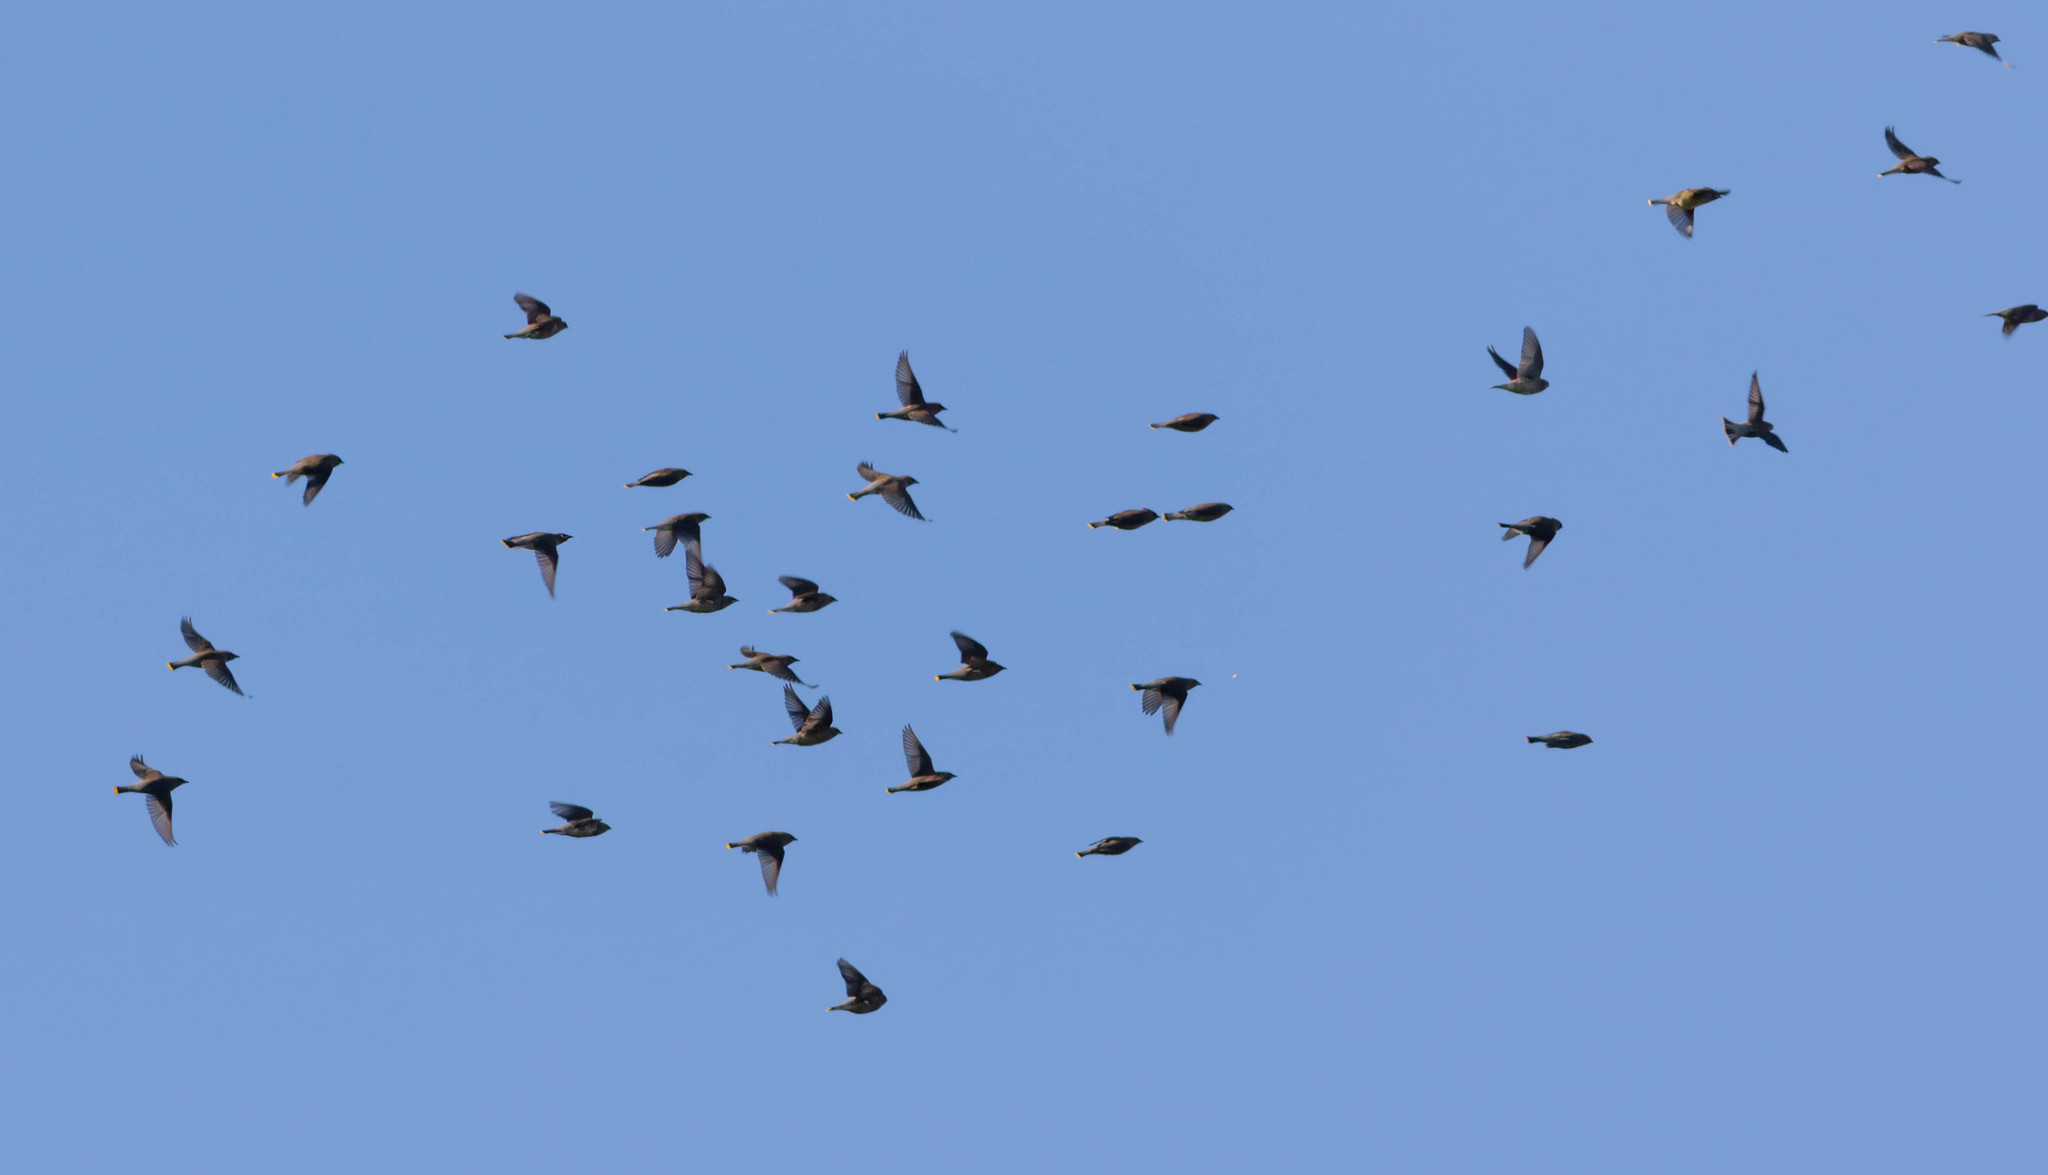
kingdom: Animalia
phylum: Chordata
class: Aves
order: Passeriformes
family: Bombycillidae
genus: Bombycilla
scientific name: Bombycilla cedrorum
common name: Cedar waxwing
